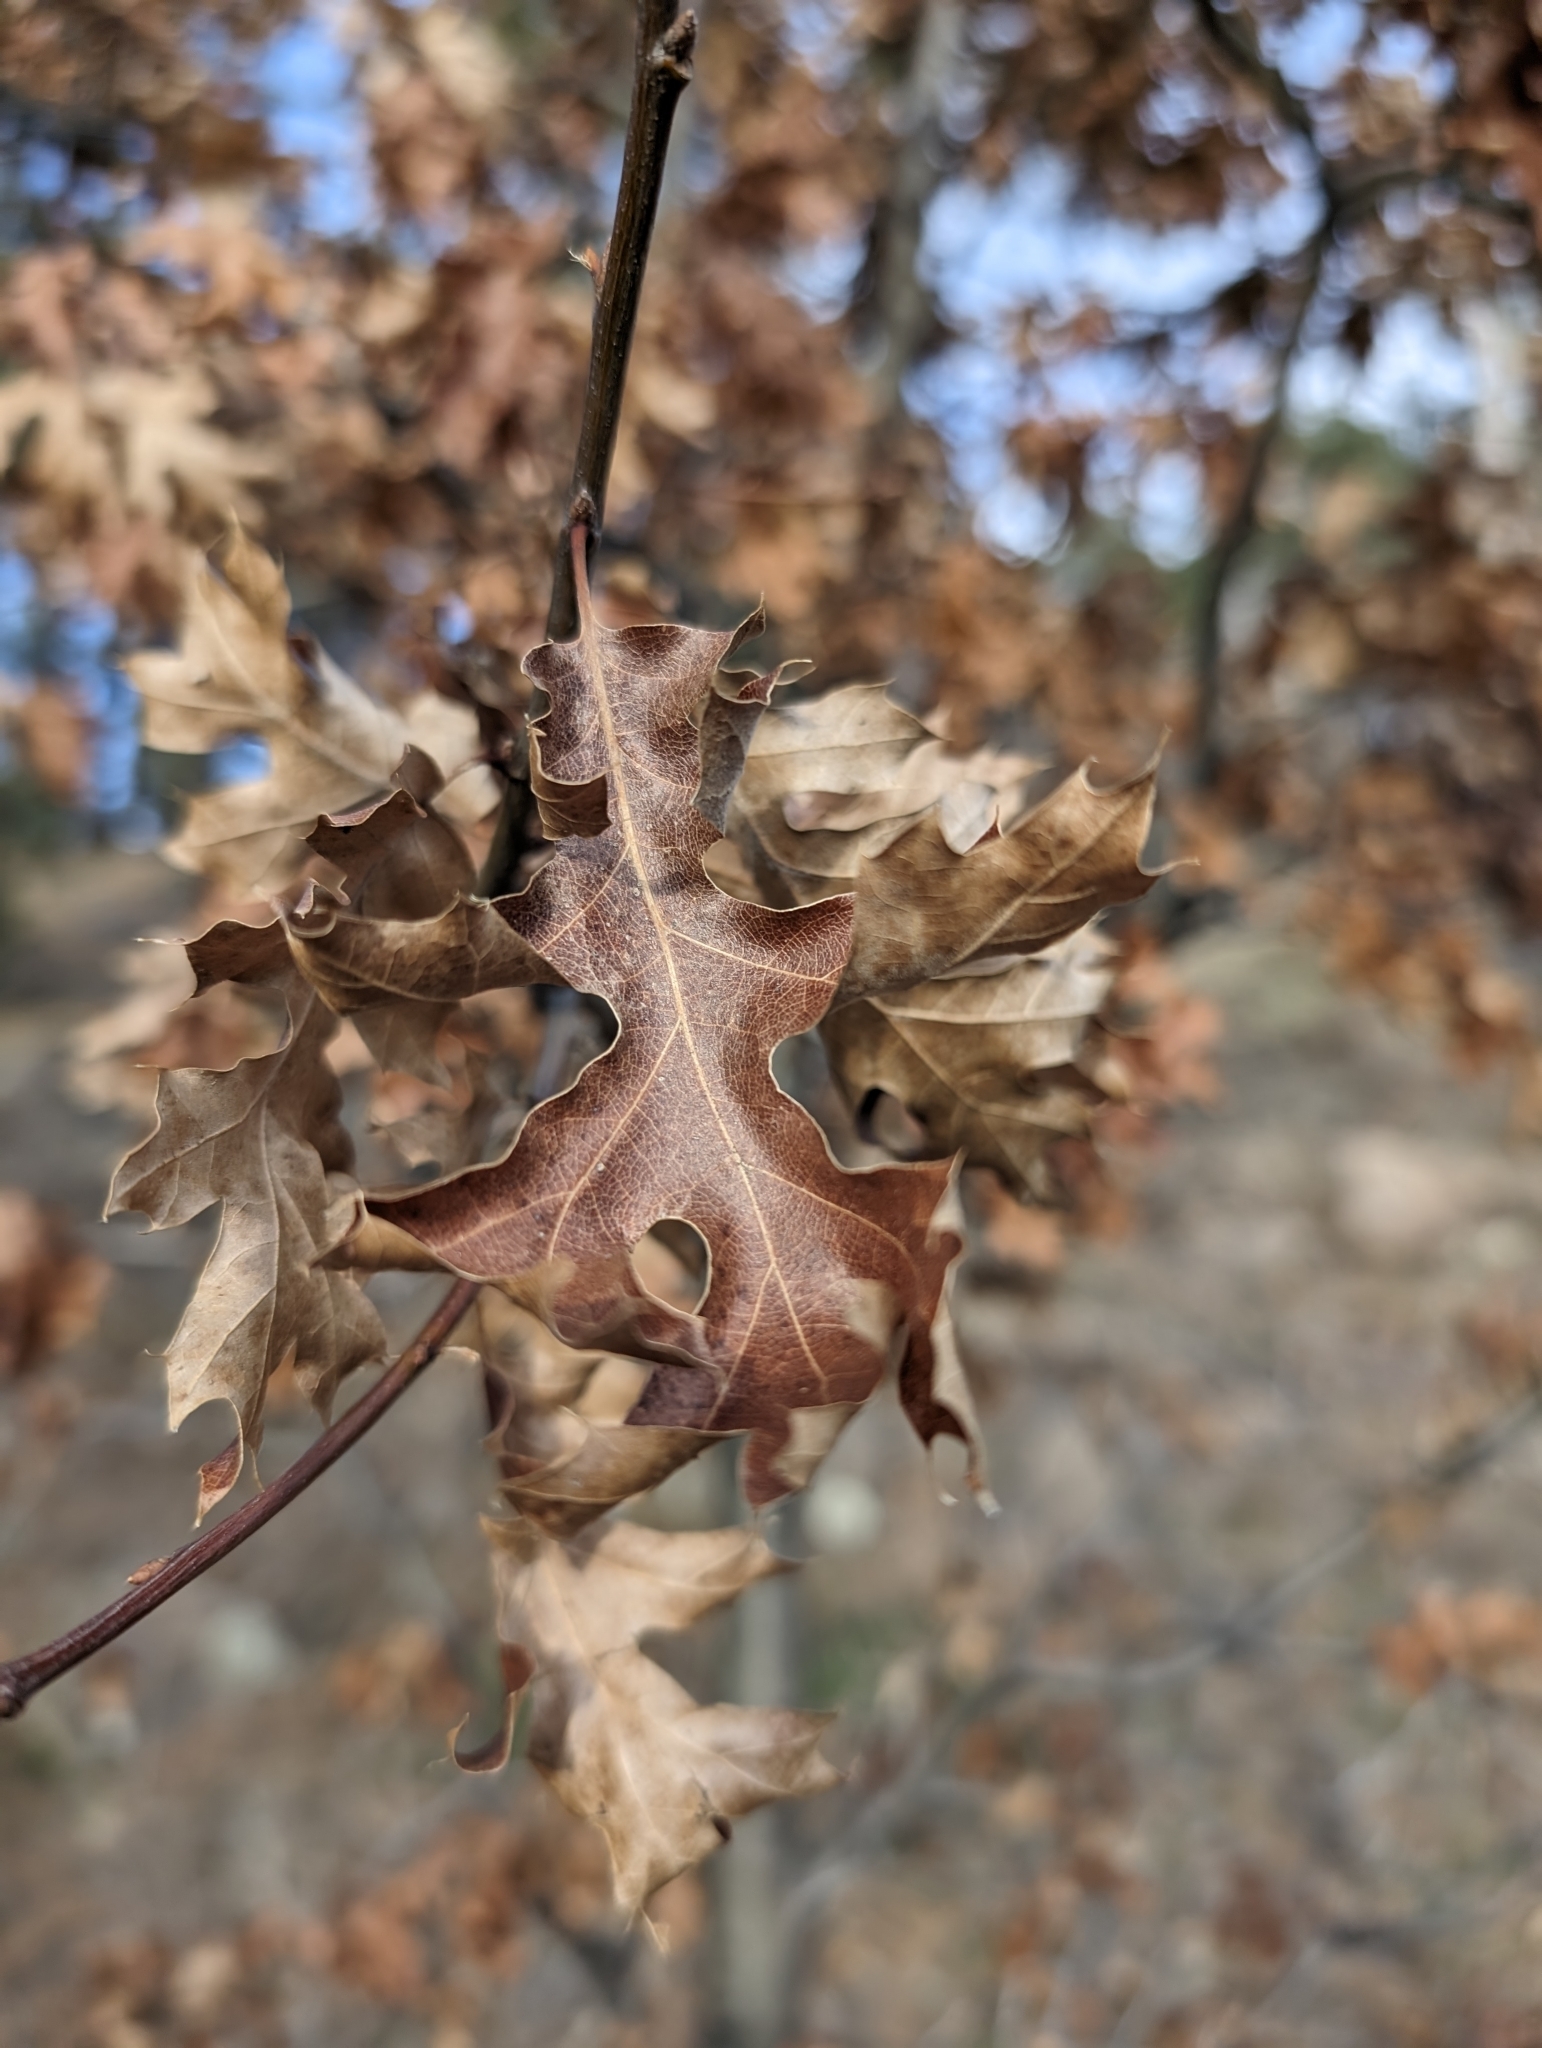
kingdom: Plantae
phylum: Tracheophyta
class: Magnoliopsida
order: Fagales
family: Fagaceae
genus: Quercus
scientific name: Quercus kelloggii
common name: California black oak
